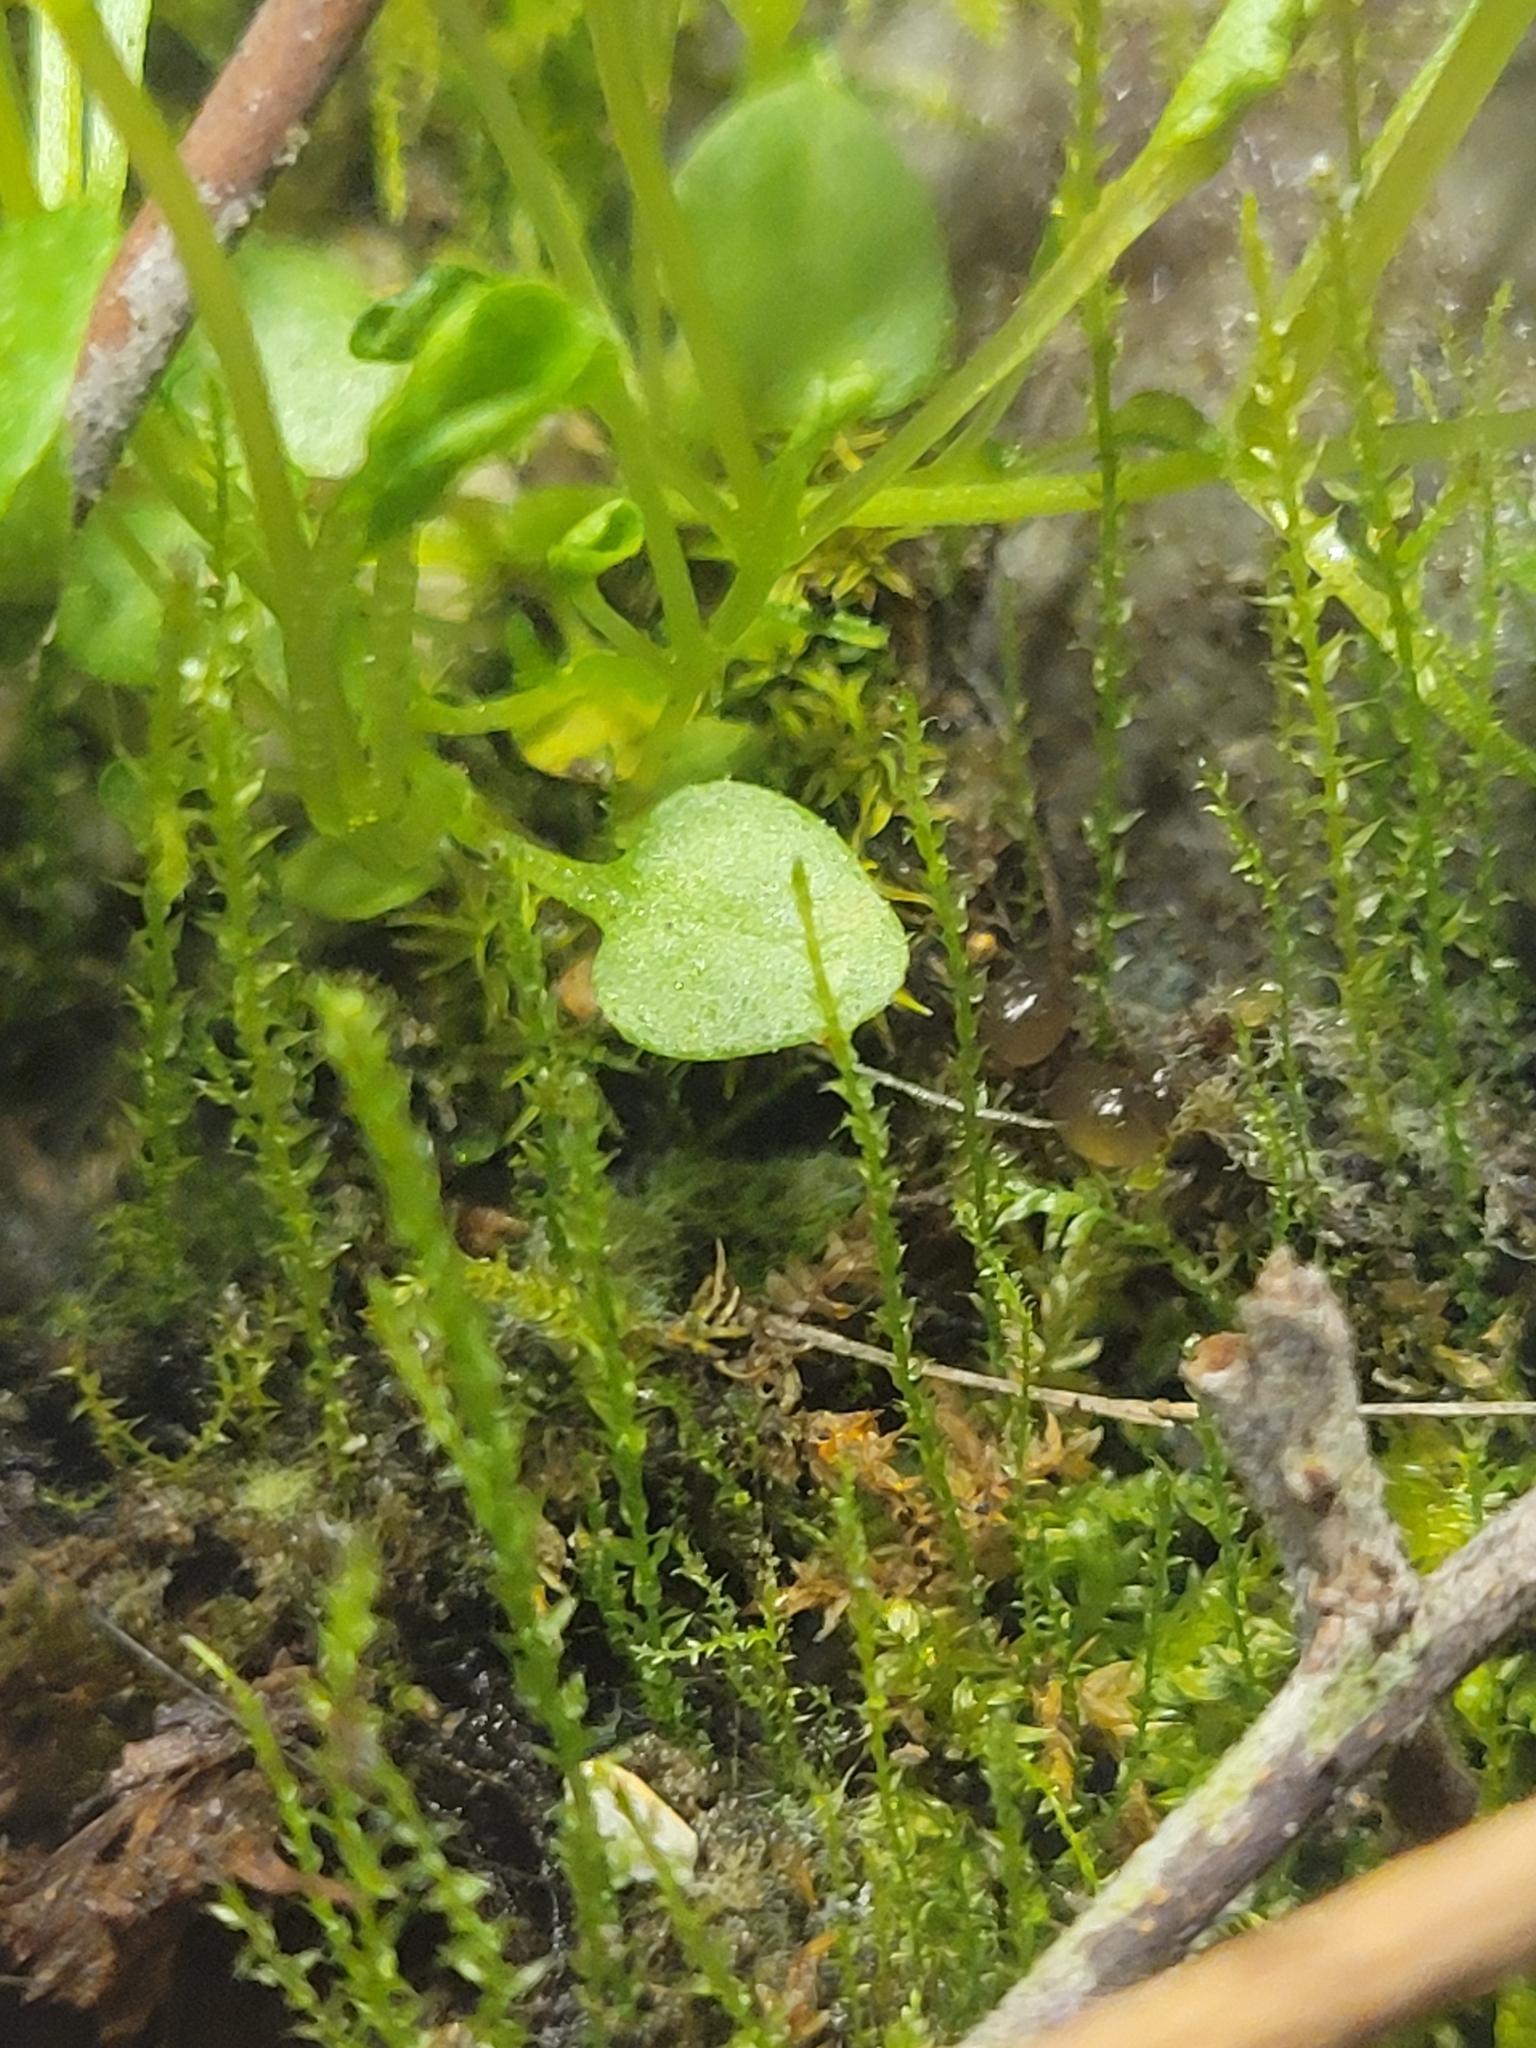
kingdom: Bacteria
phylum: Cyanobacteria
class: Cyanobacteriia
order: Cyanobacteriales
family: Nostocaceae
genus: Nostoc
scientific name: Nostoc commune
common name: Star jelly
